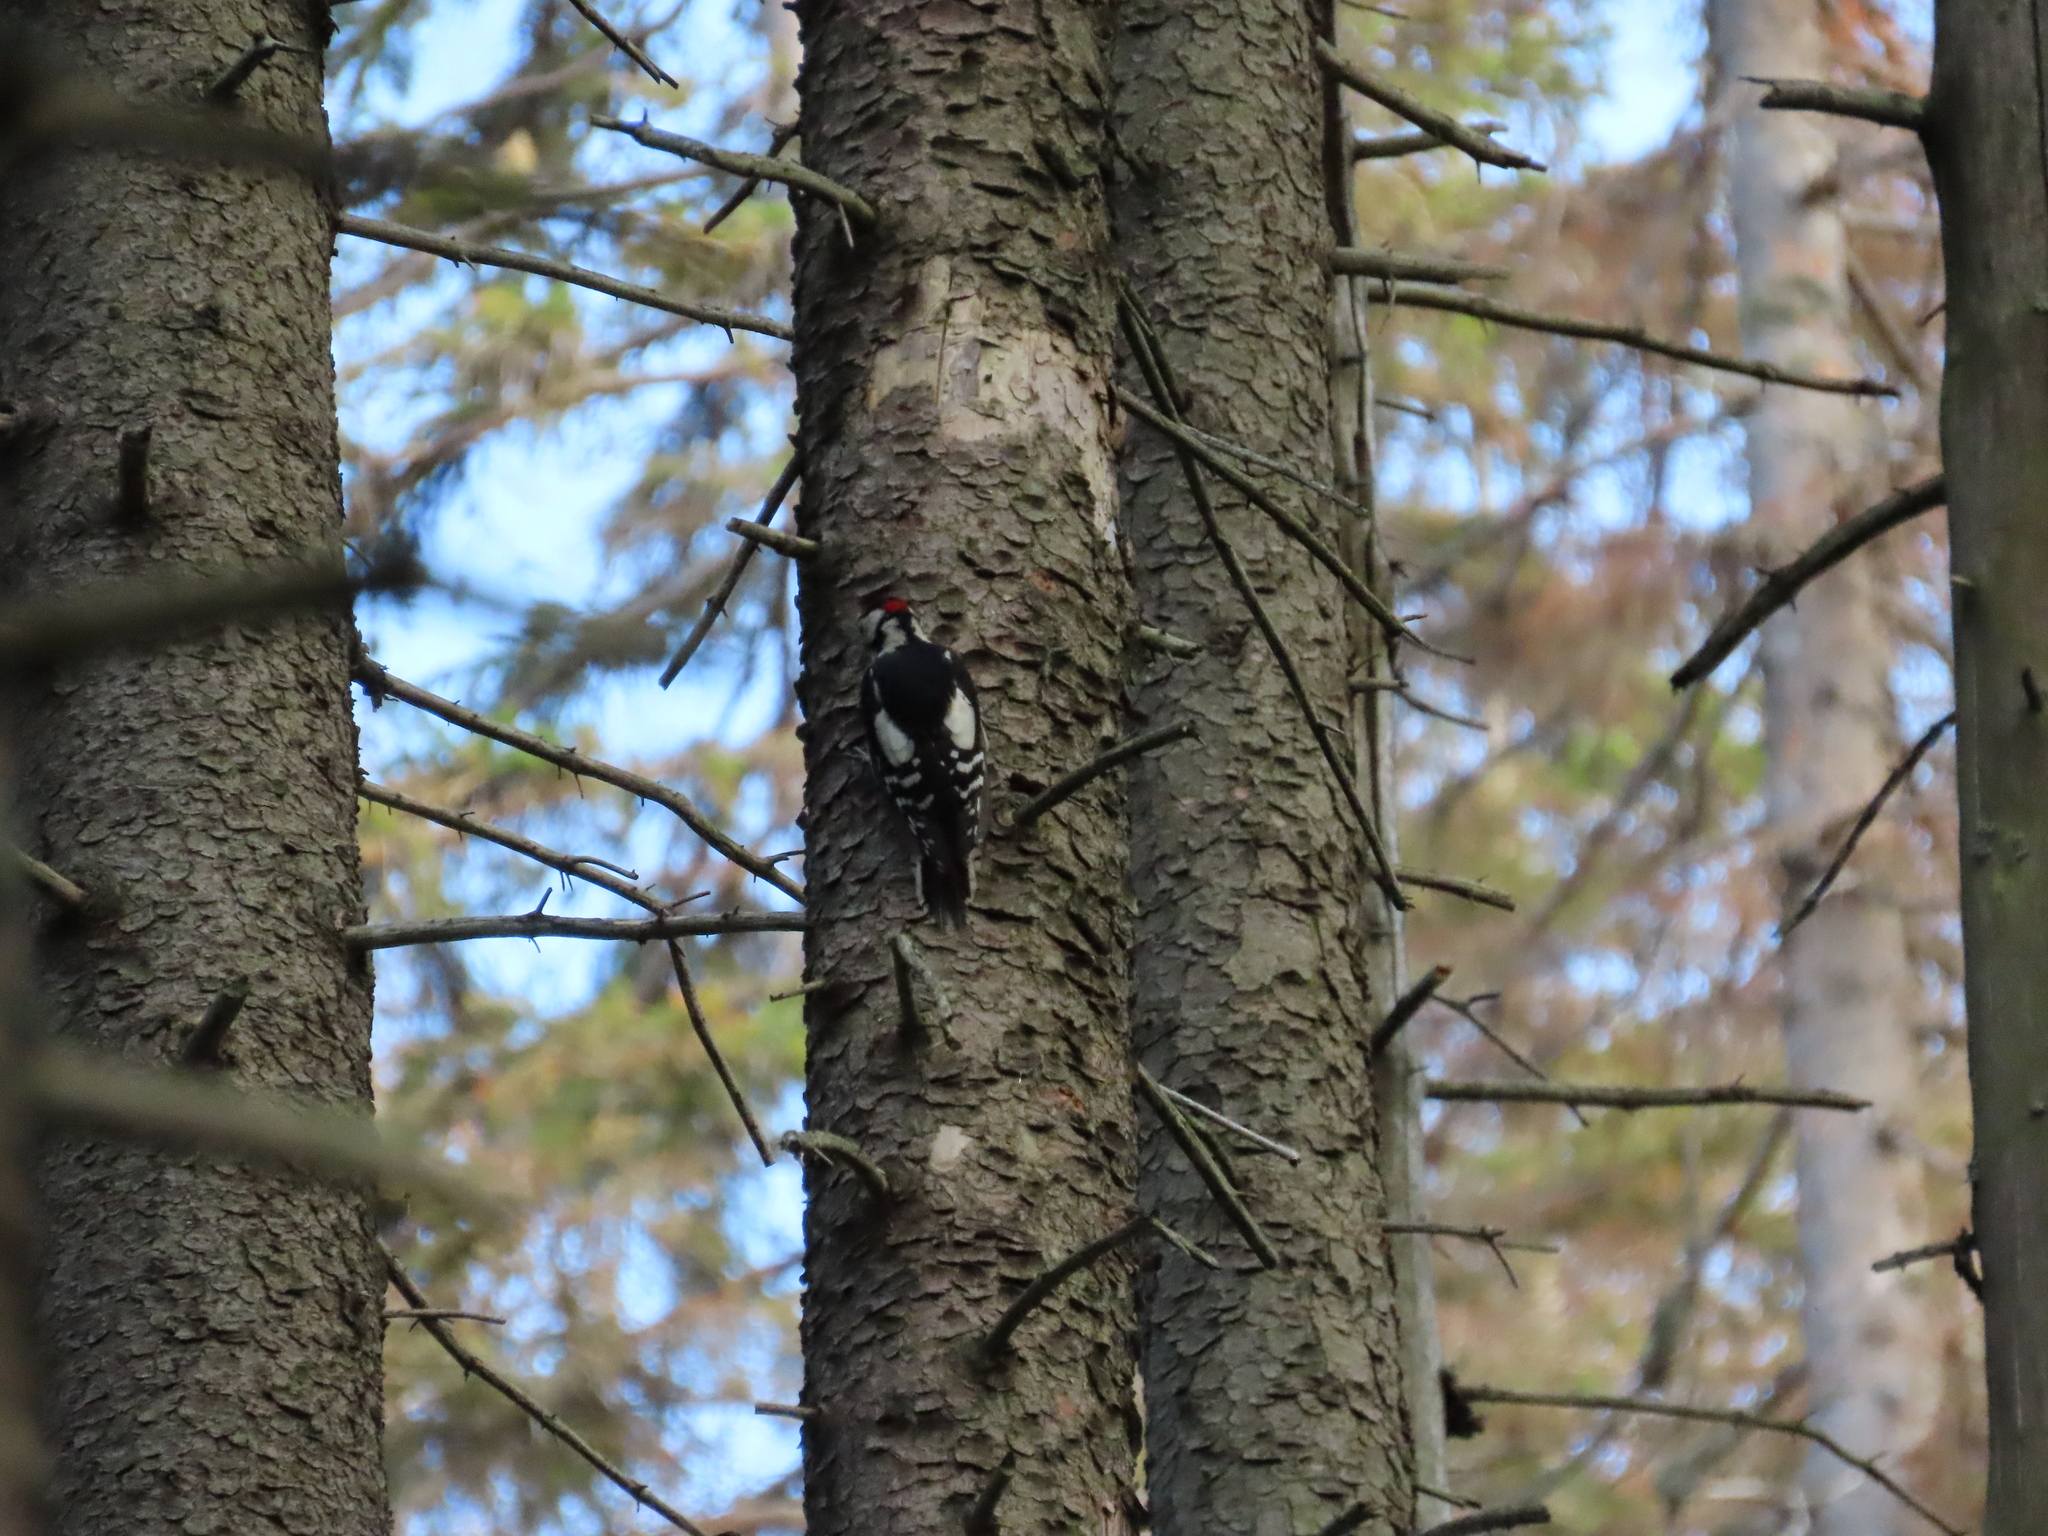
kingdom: Animalia
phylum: Chordata
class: Aves
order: Piciformes
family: Picidae
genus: Dendrocopos
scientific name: Dendrocopos major
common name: Great spotted woodpecker
